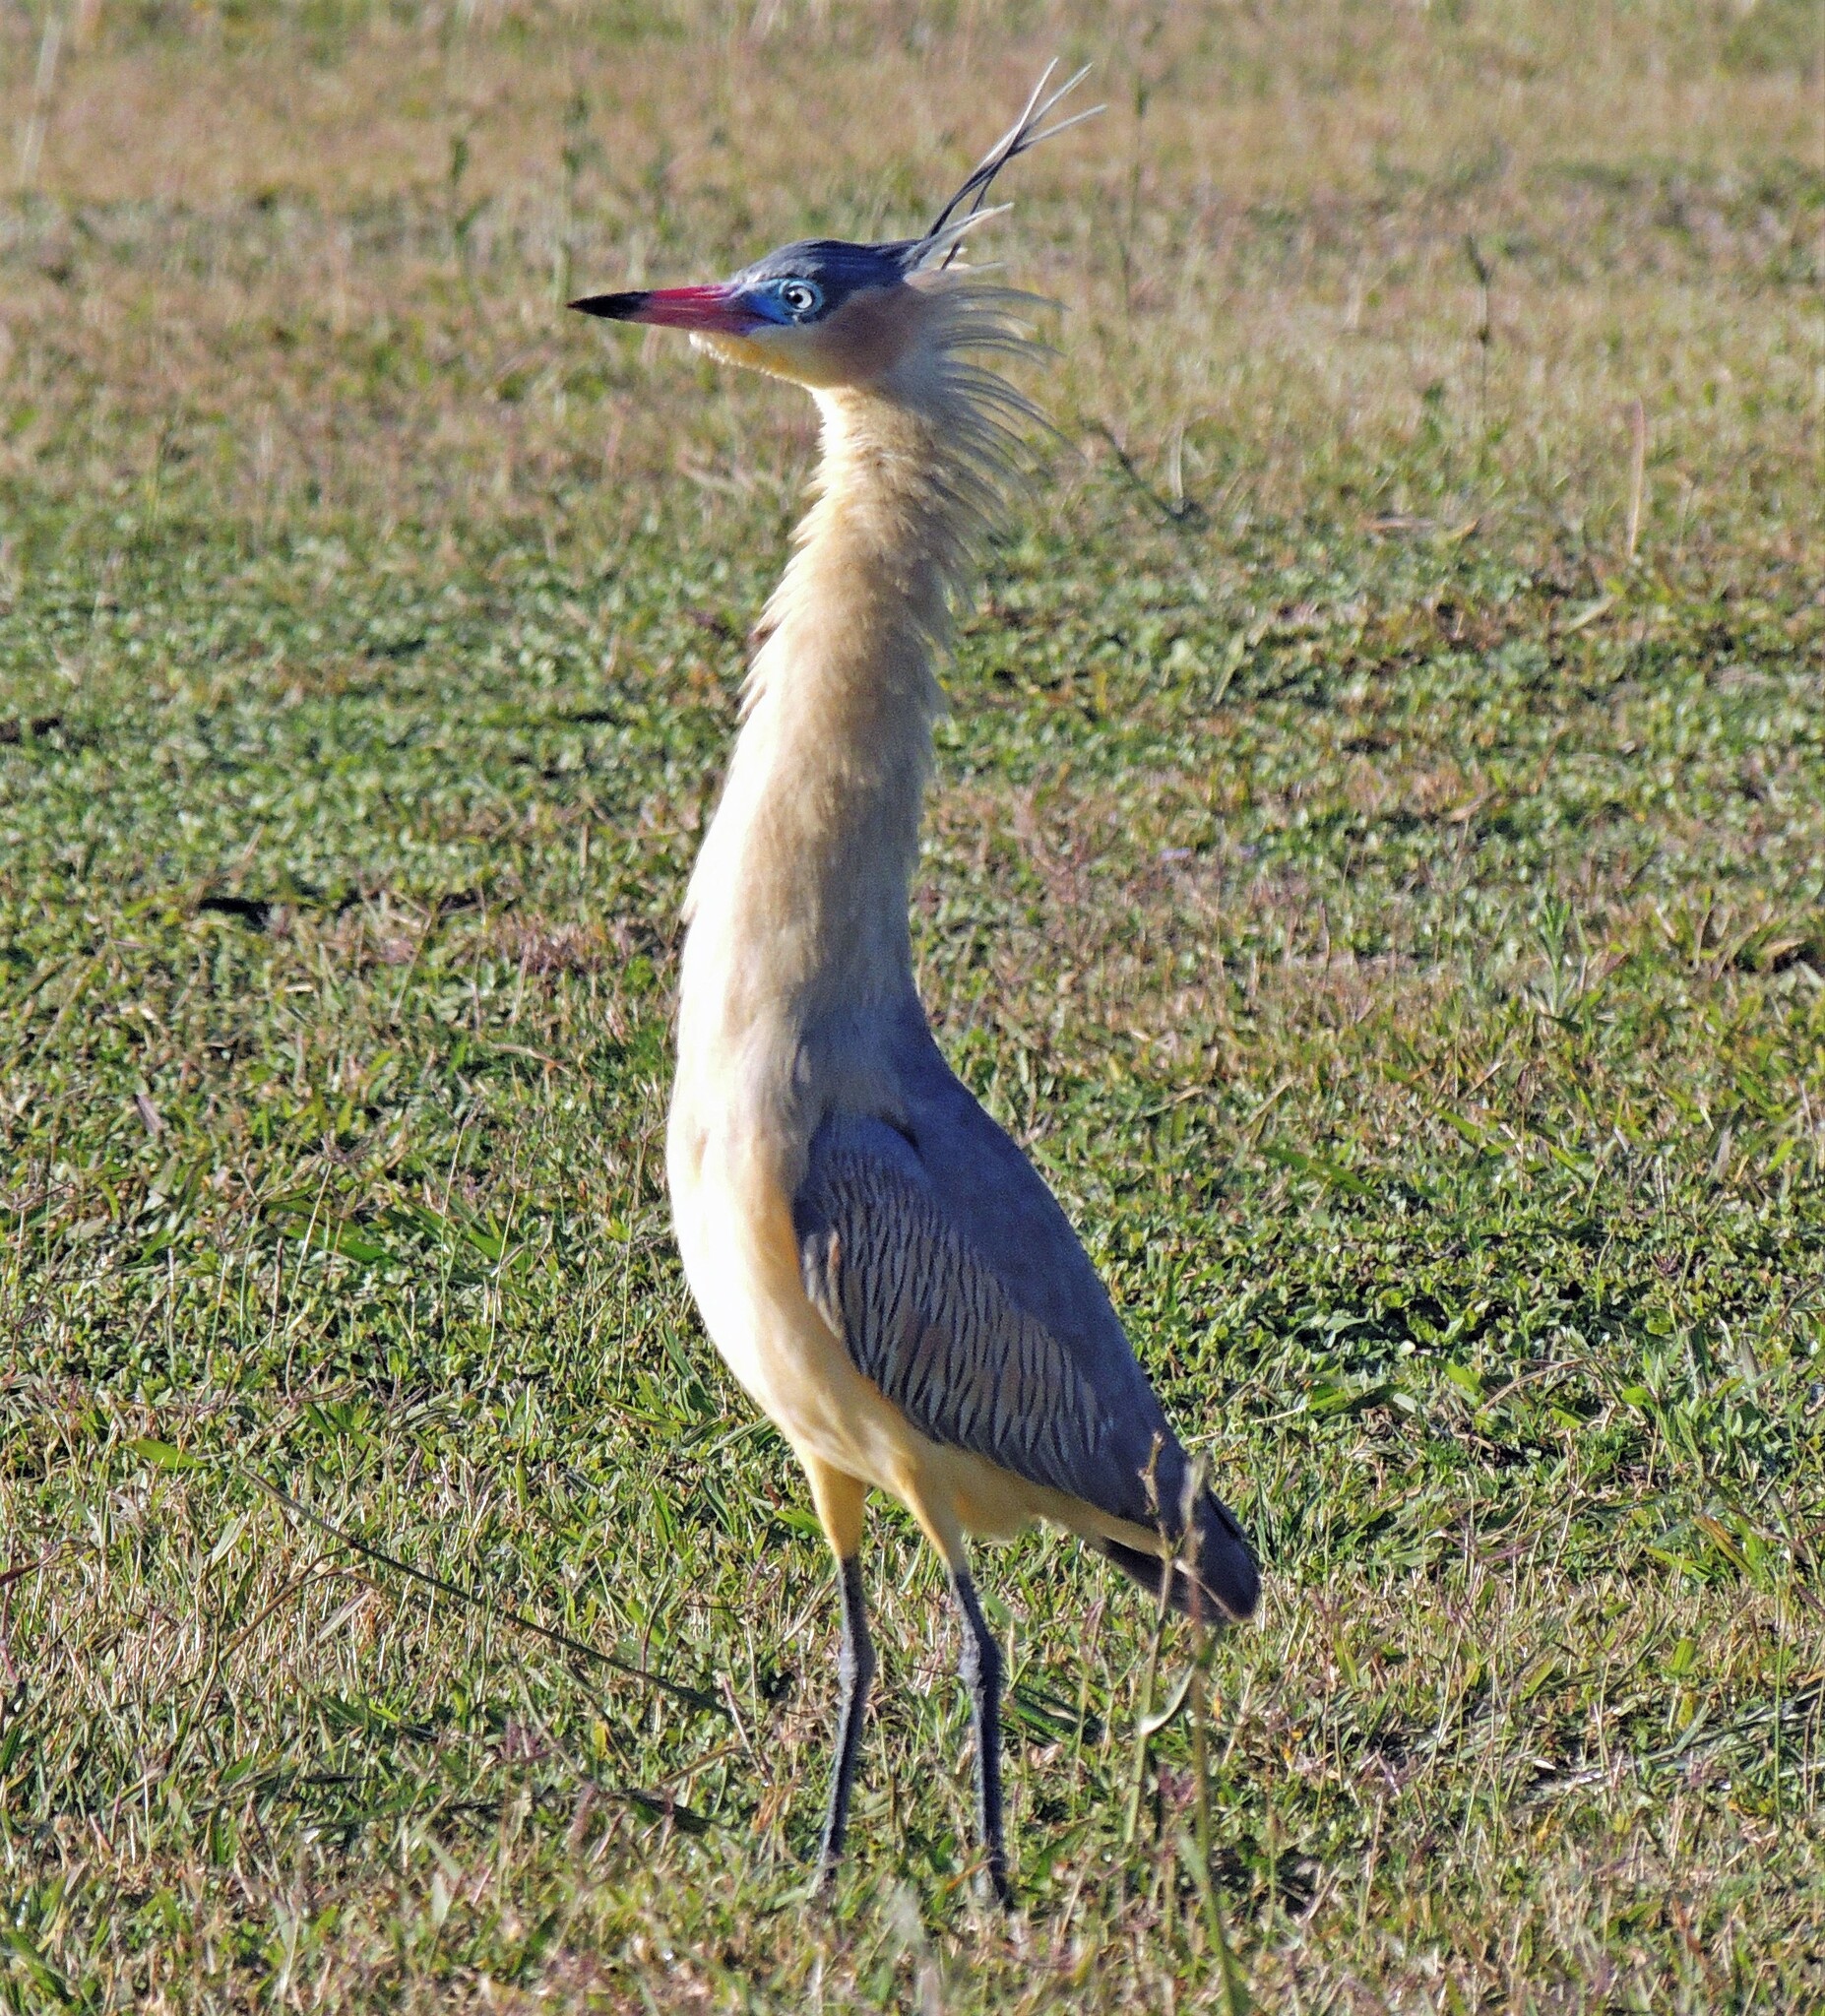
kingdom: Animalia
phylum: Chordata
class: Aves
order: Pelecaniformes
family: Ardeidae
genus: Syrigma
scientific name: Syrigma sibilatrix
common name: Whistling heron
